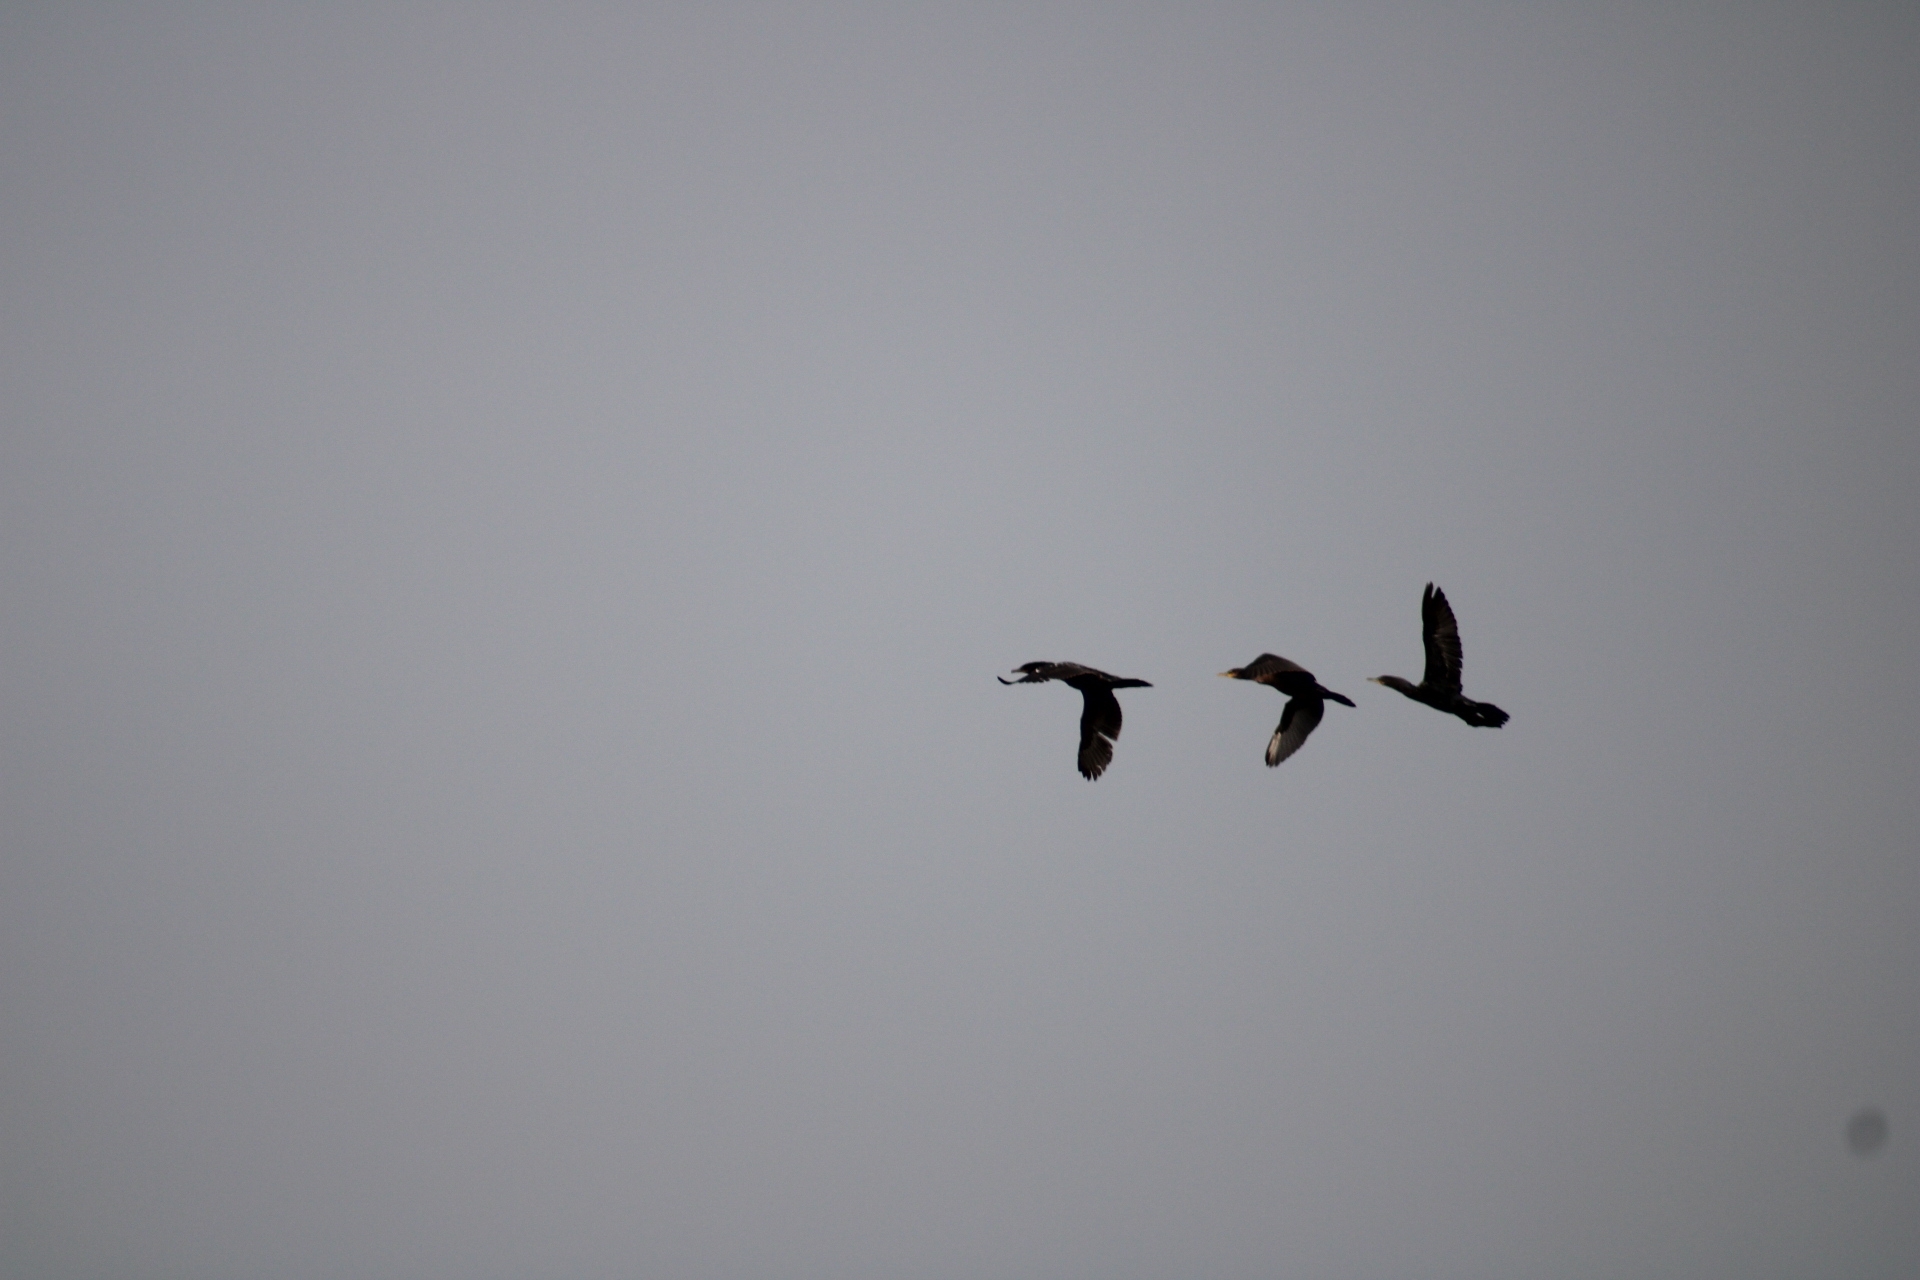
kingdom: Animalia
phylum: Chordata
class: Aves
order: Suliformes
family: Phalacrocoracidae
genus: Phalacrocorax
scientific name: Phalacrocorax brasilianus
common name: Neotropic cormorant
